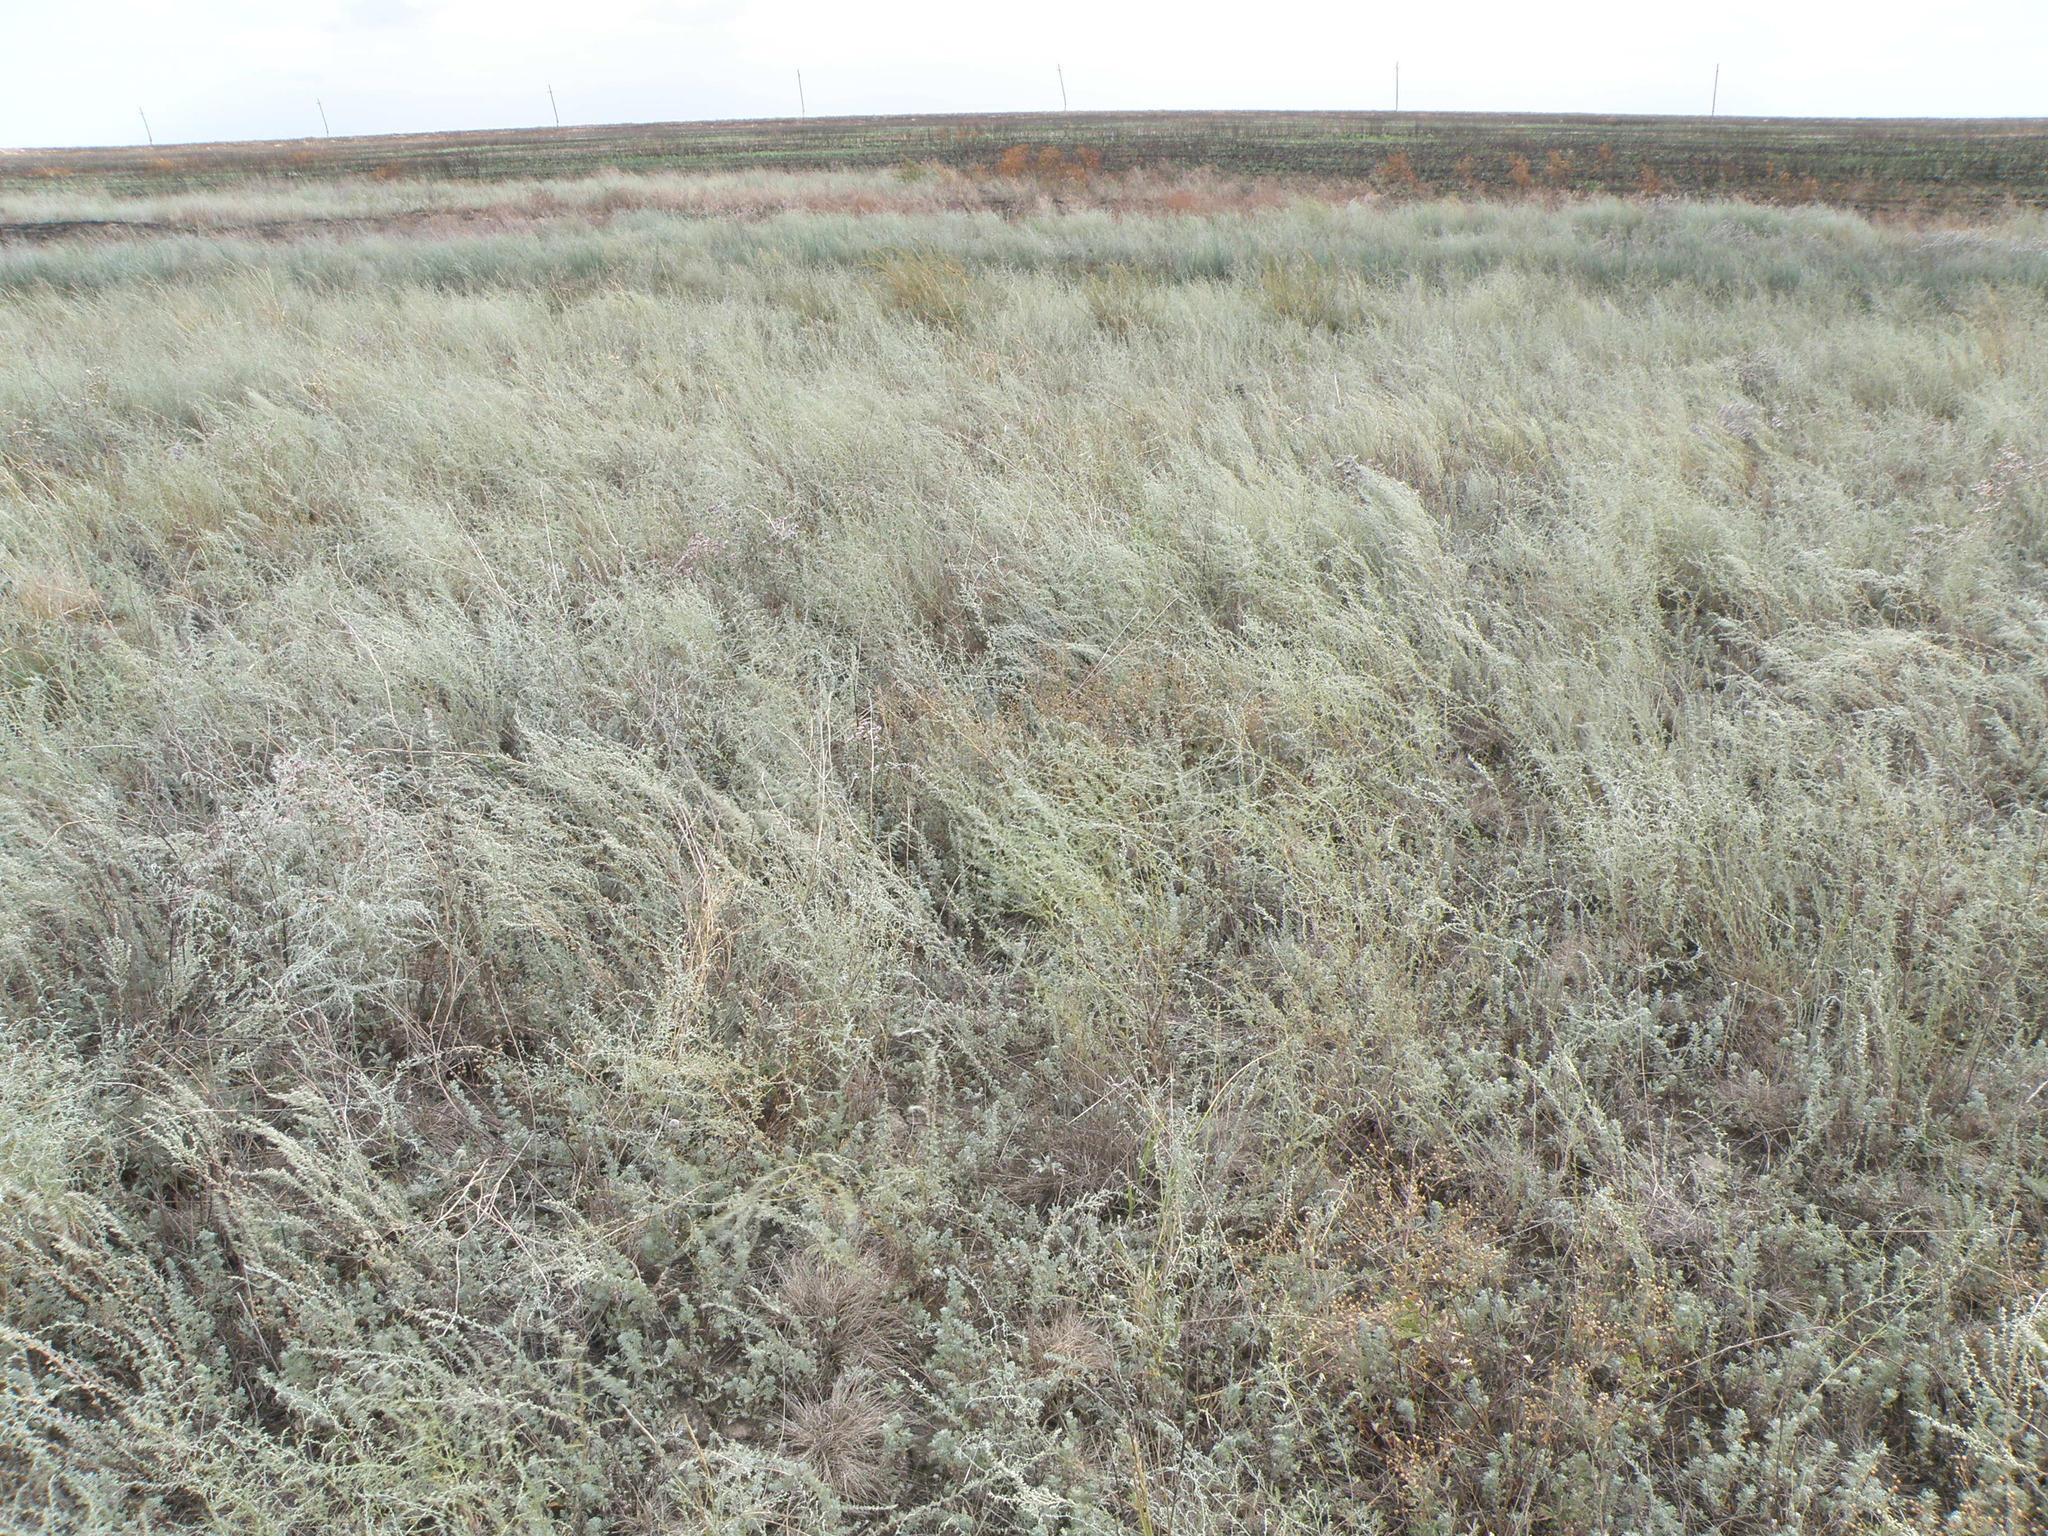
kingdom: Plantae
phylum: Tracheophyta
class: Magnoliopsida
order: Asterales
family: Asteraceae
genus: Artemisia
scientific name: Artemisia santonicum
